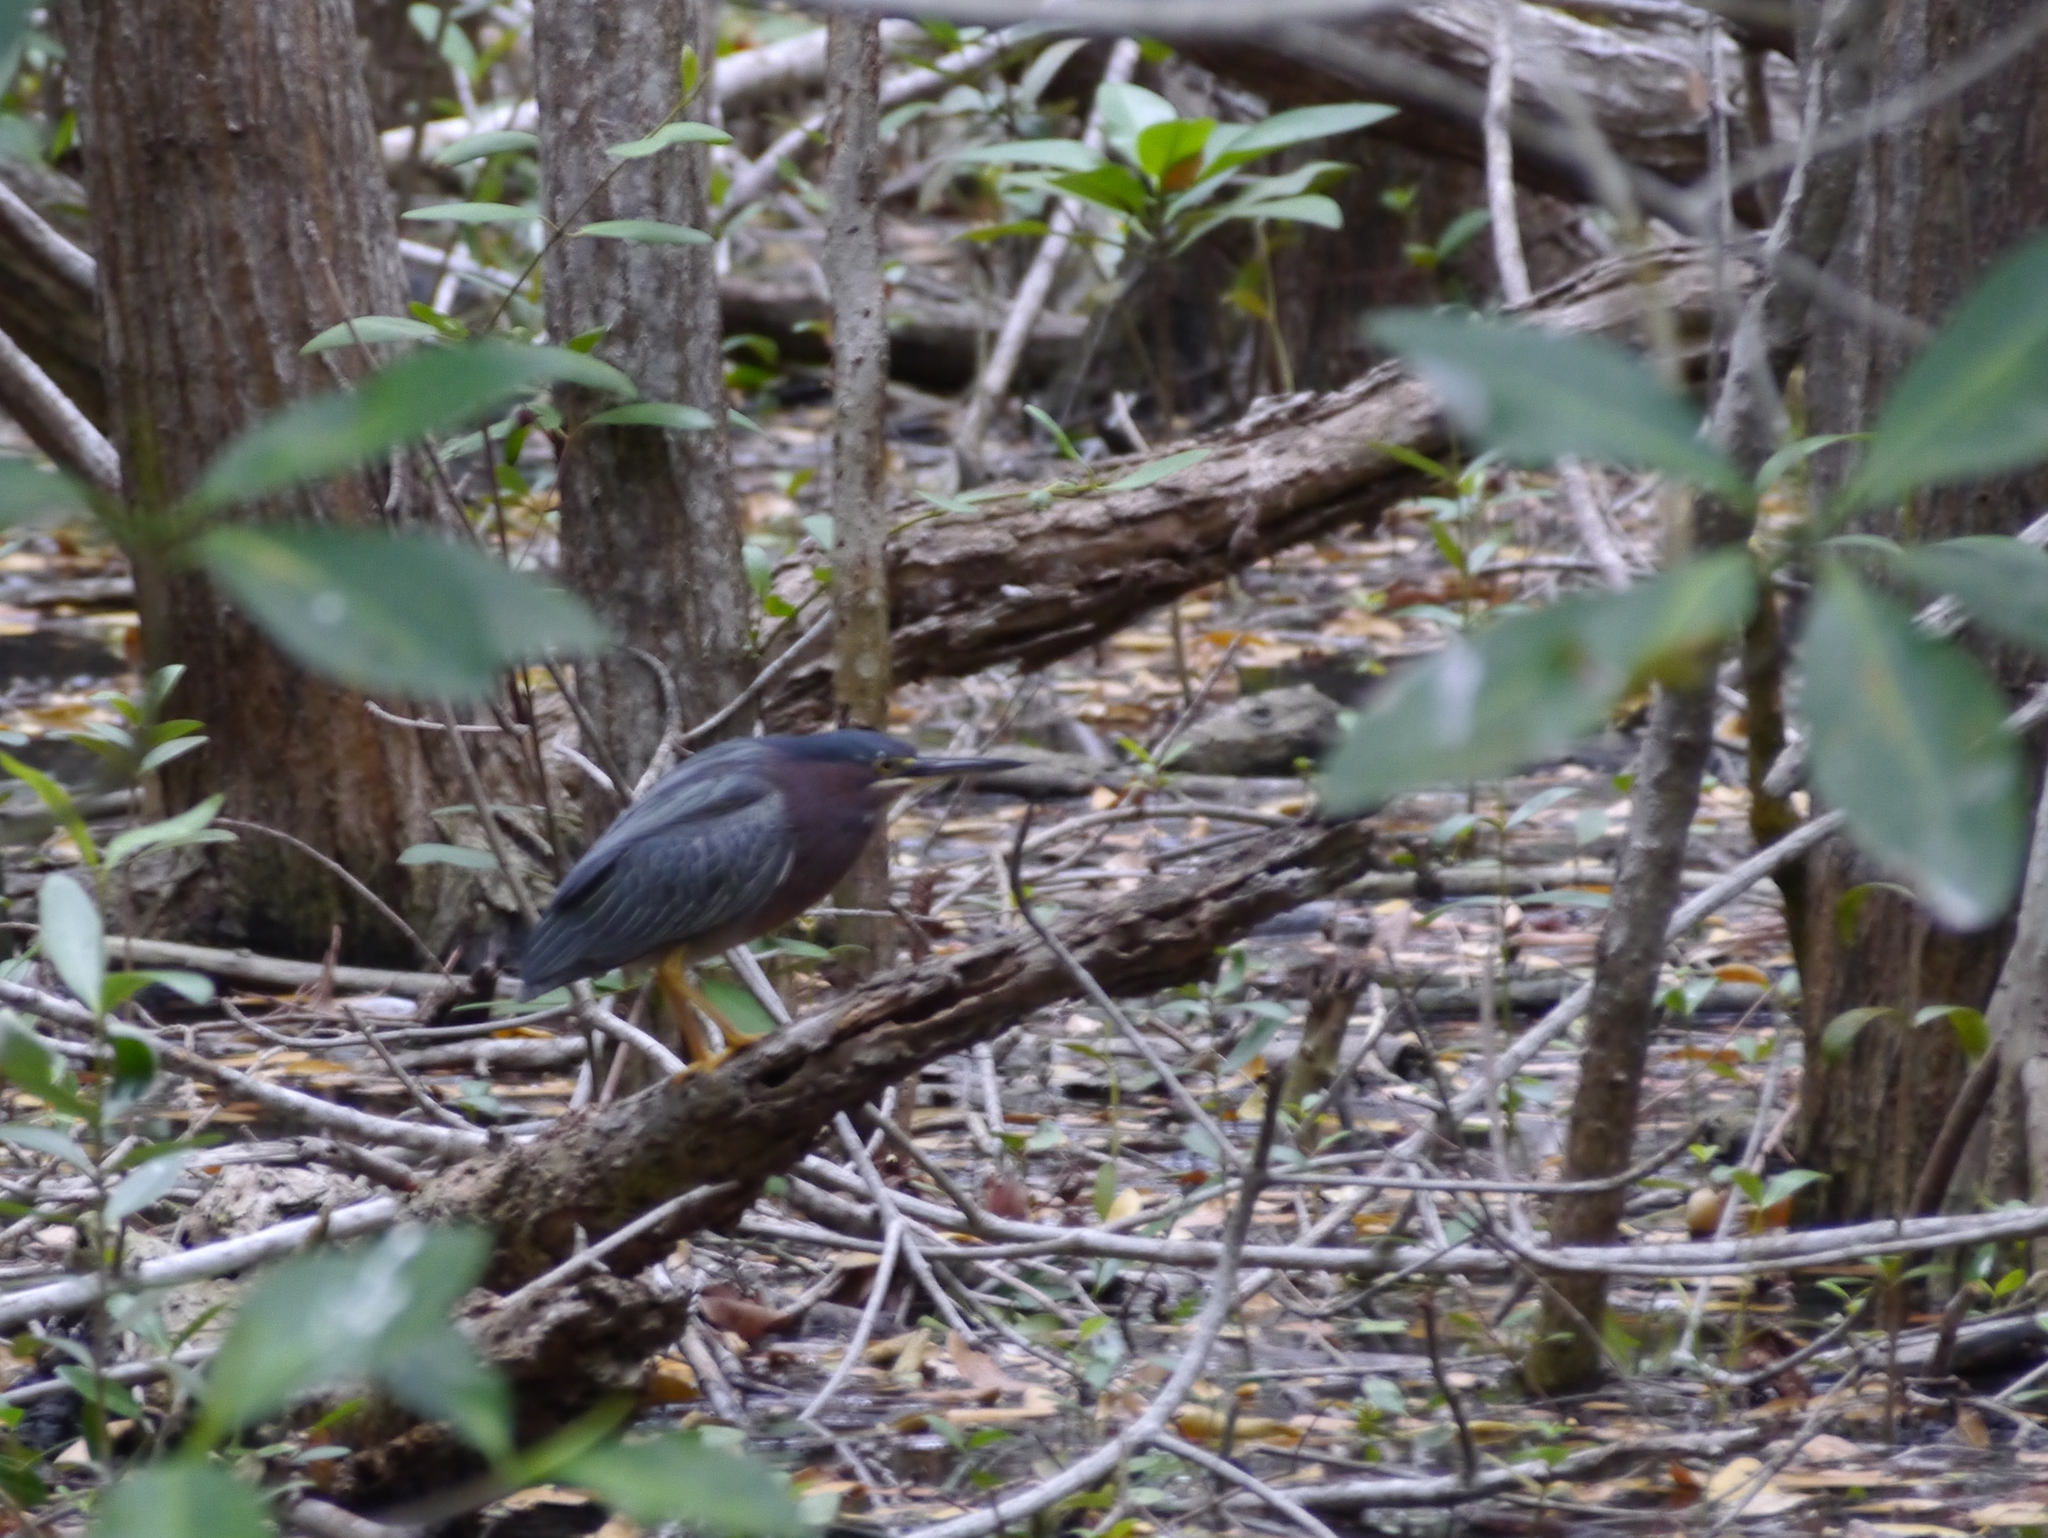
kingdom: Animalia
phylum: Chordata
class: Aves
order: Pelecaniformes
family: Ardeidae
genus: Butorides
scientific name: Butorides virescens
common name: Green heron
